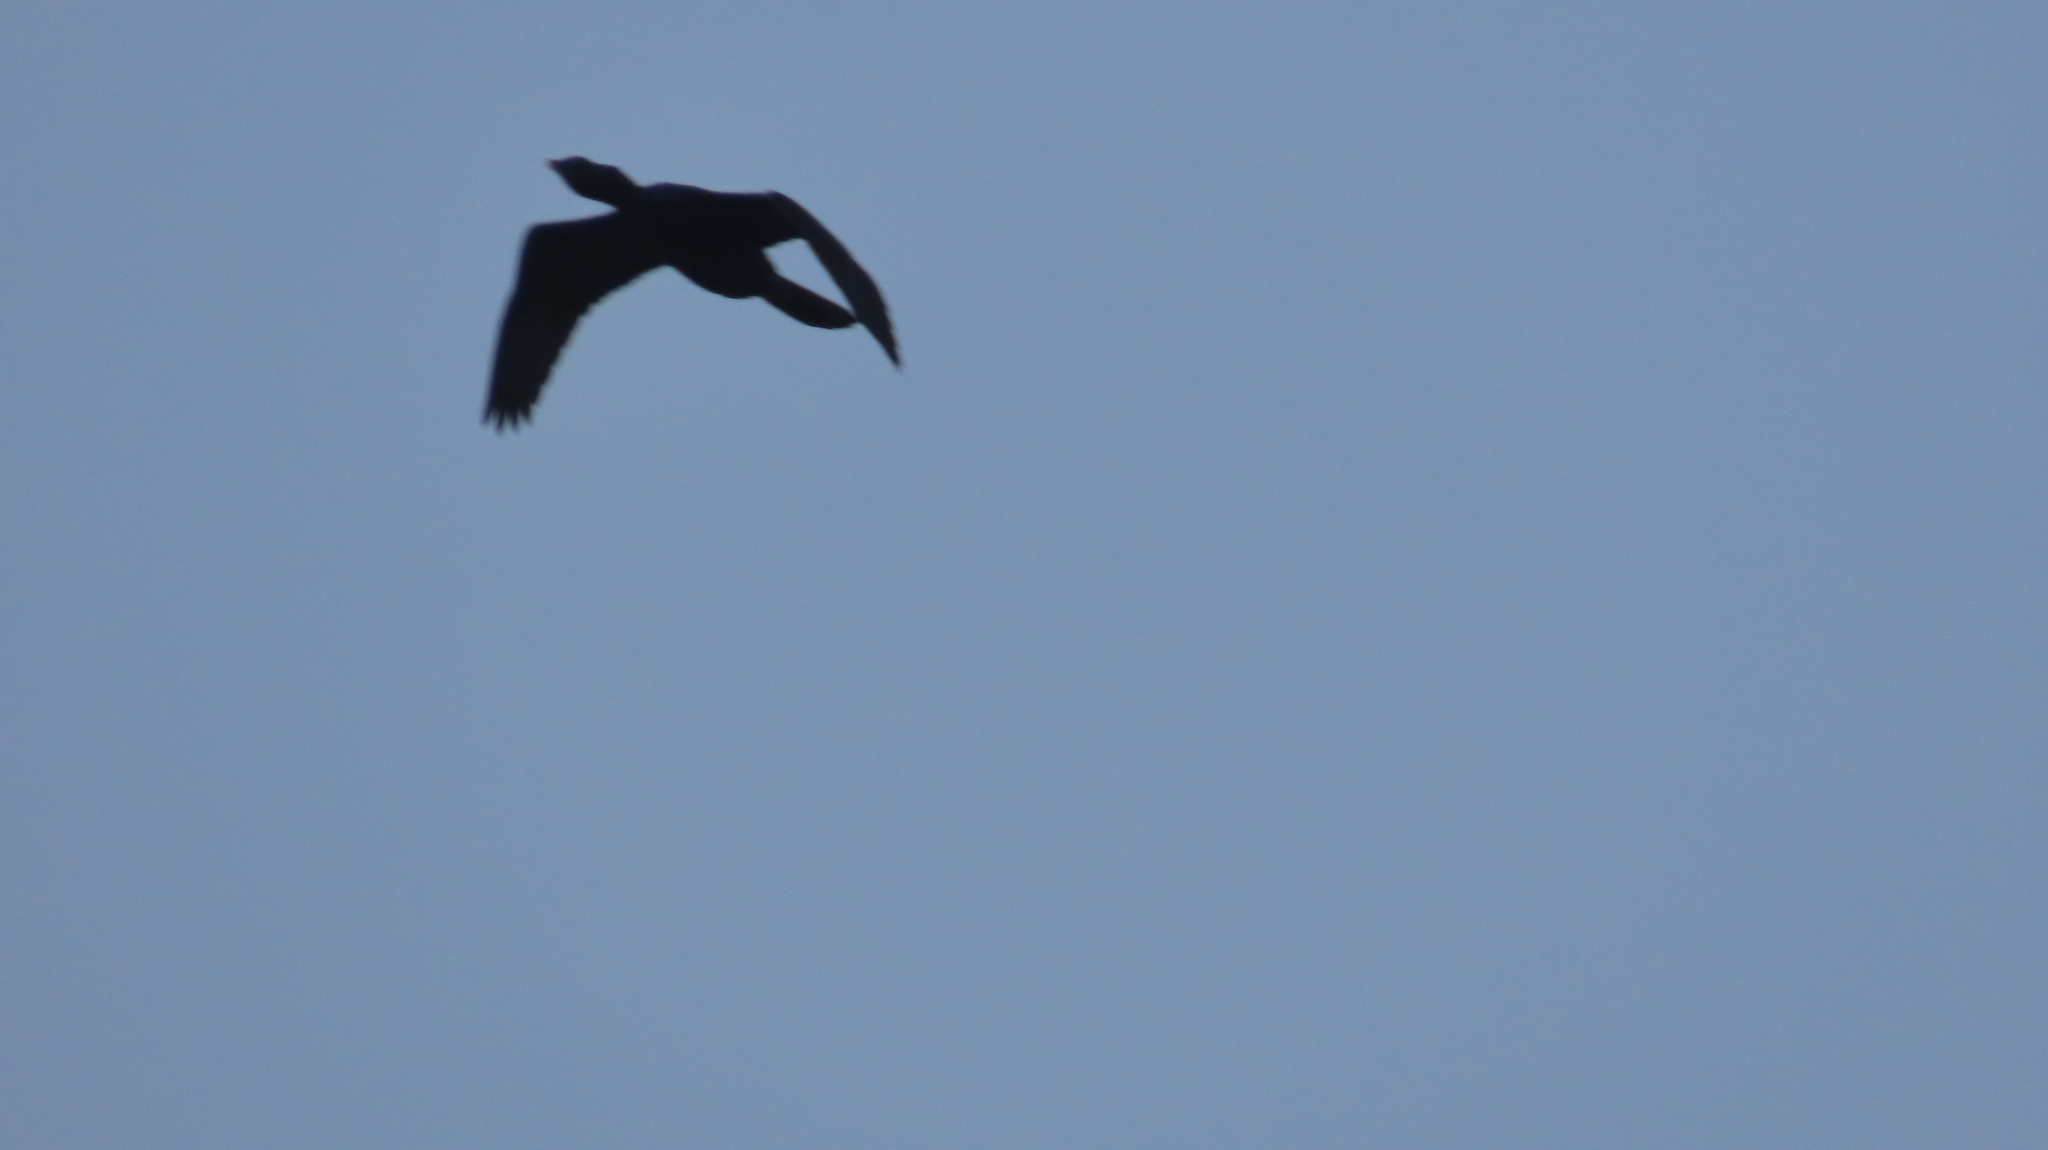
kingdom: Animalia
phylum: Chordata
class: Aves
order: Suliformes
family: Phalacrocoracidae
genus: Microcarbo
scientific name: Microcarbo niger
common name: Little cormorant
